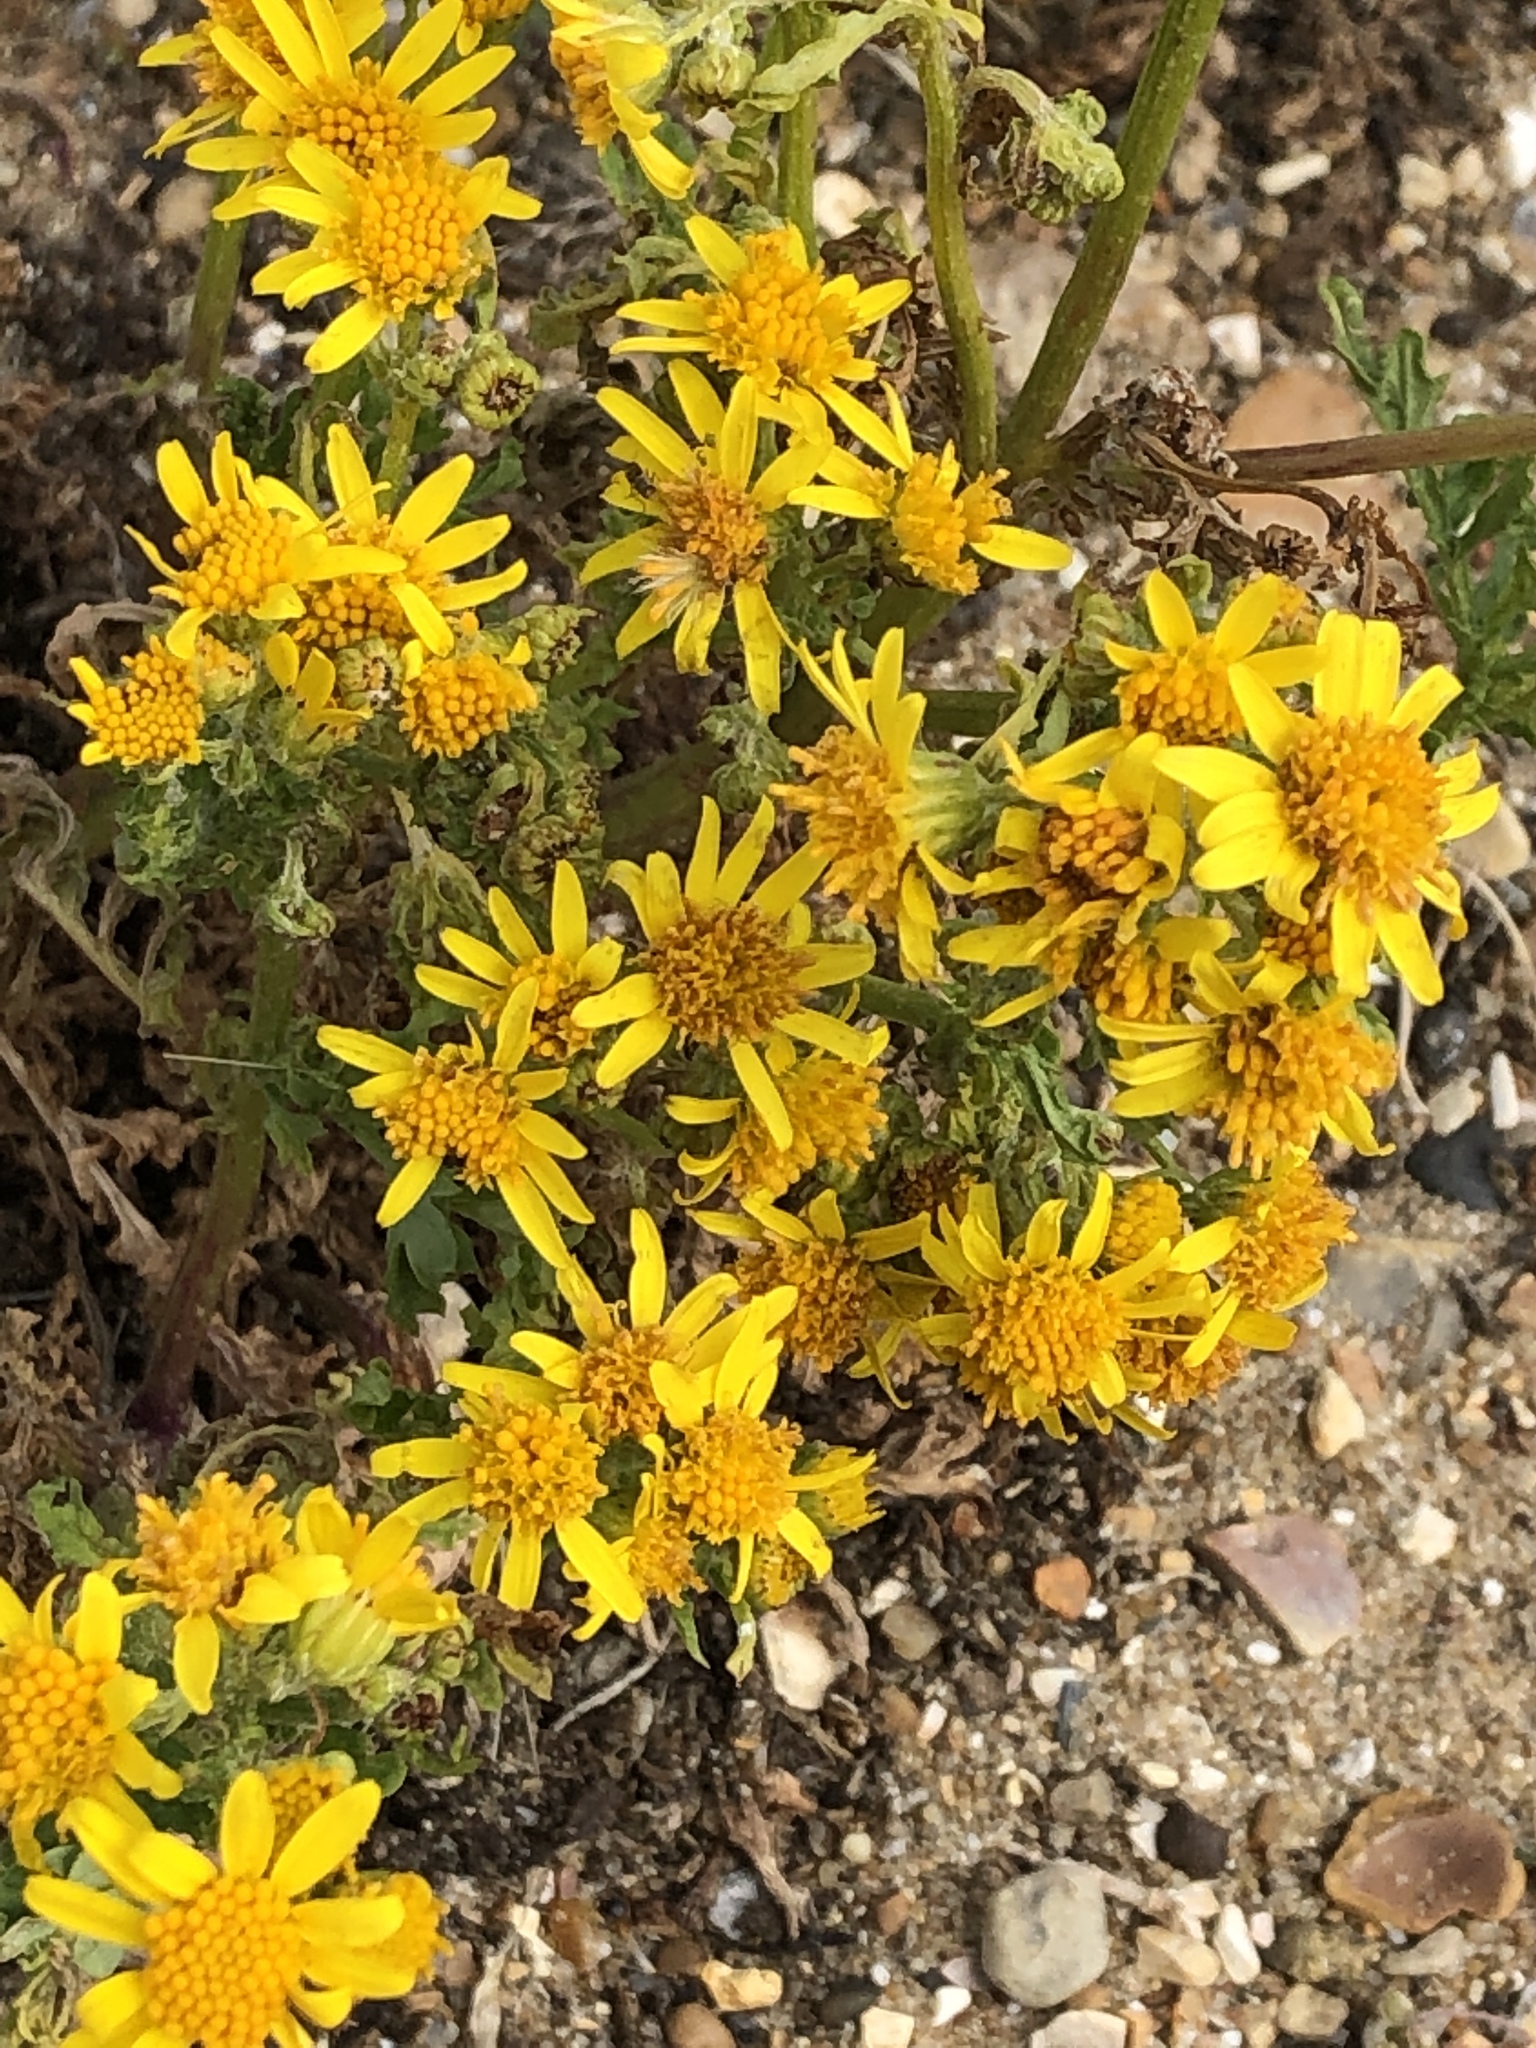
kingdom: Plantae
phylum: Tracheophyta
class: Magnoliopsida
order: Asterales
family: Asteraceae
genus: Jacobaea
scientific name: Jacobaea vulgaris
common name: Stinking willie
